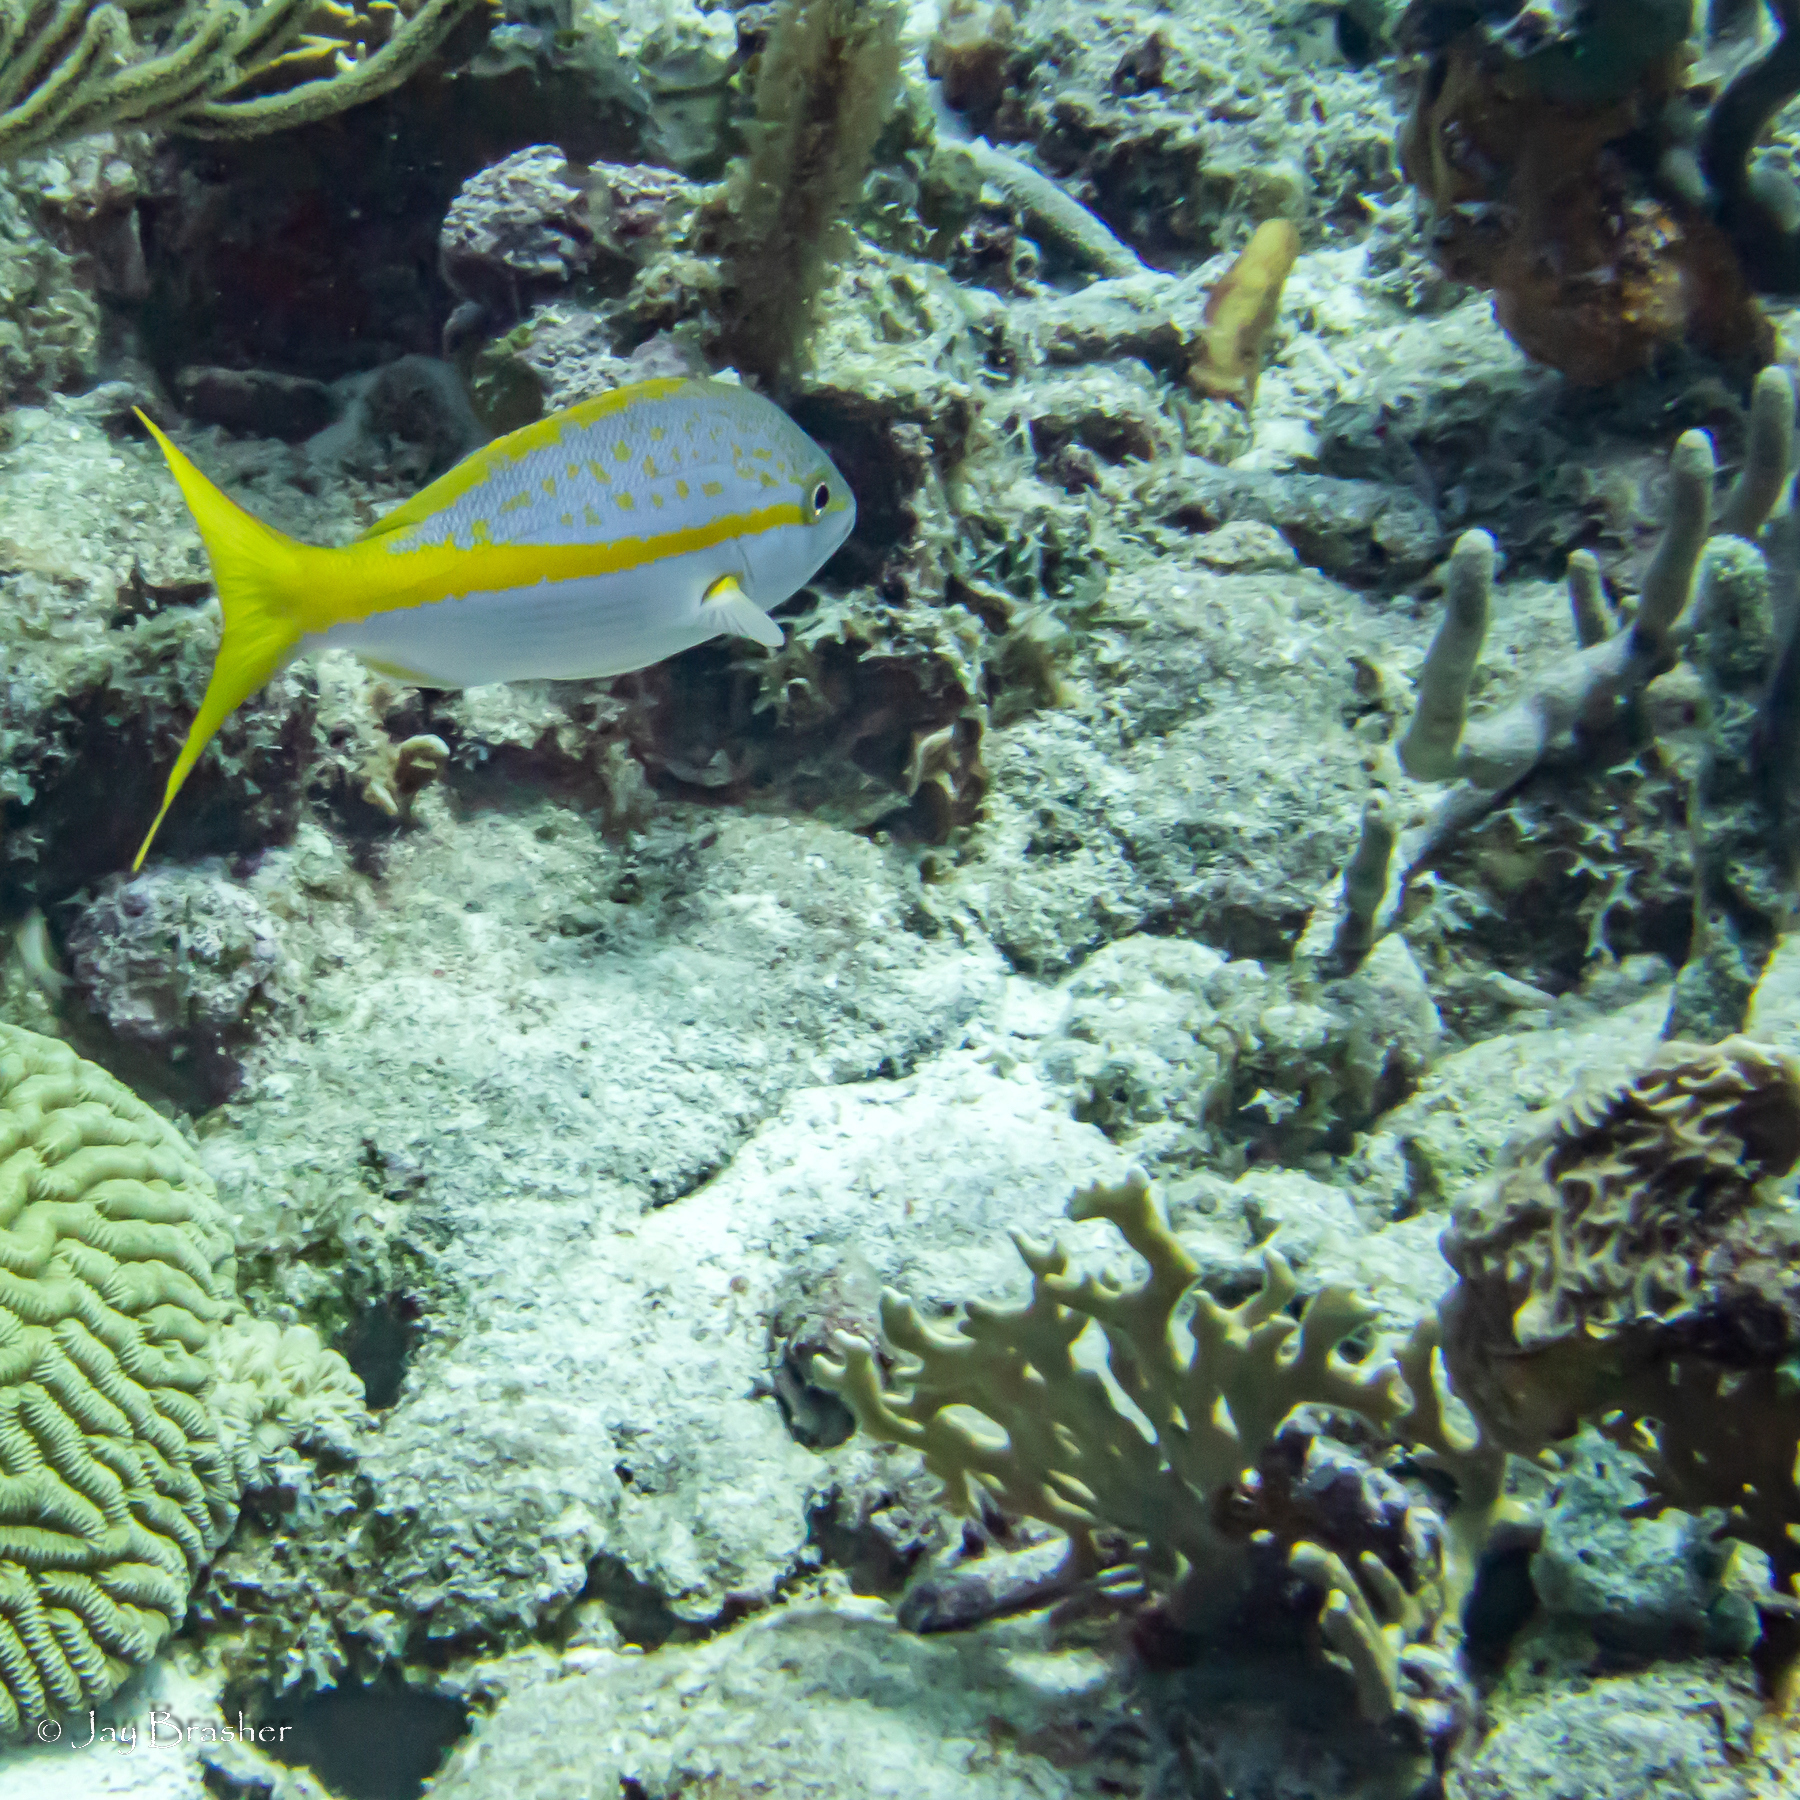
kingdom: Animalia
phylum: Chordata
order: Perciformes
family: Lutjanidae
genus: Ocyurus
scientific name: Ocyurus chrysurus
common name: Yellowtail snapper
